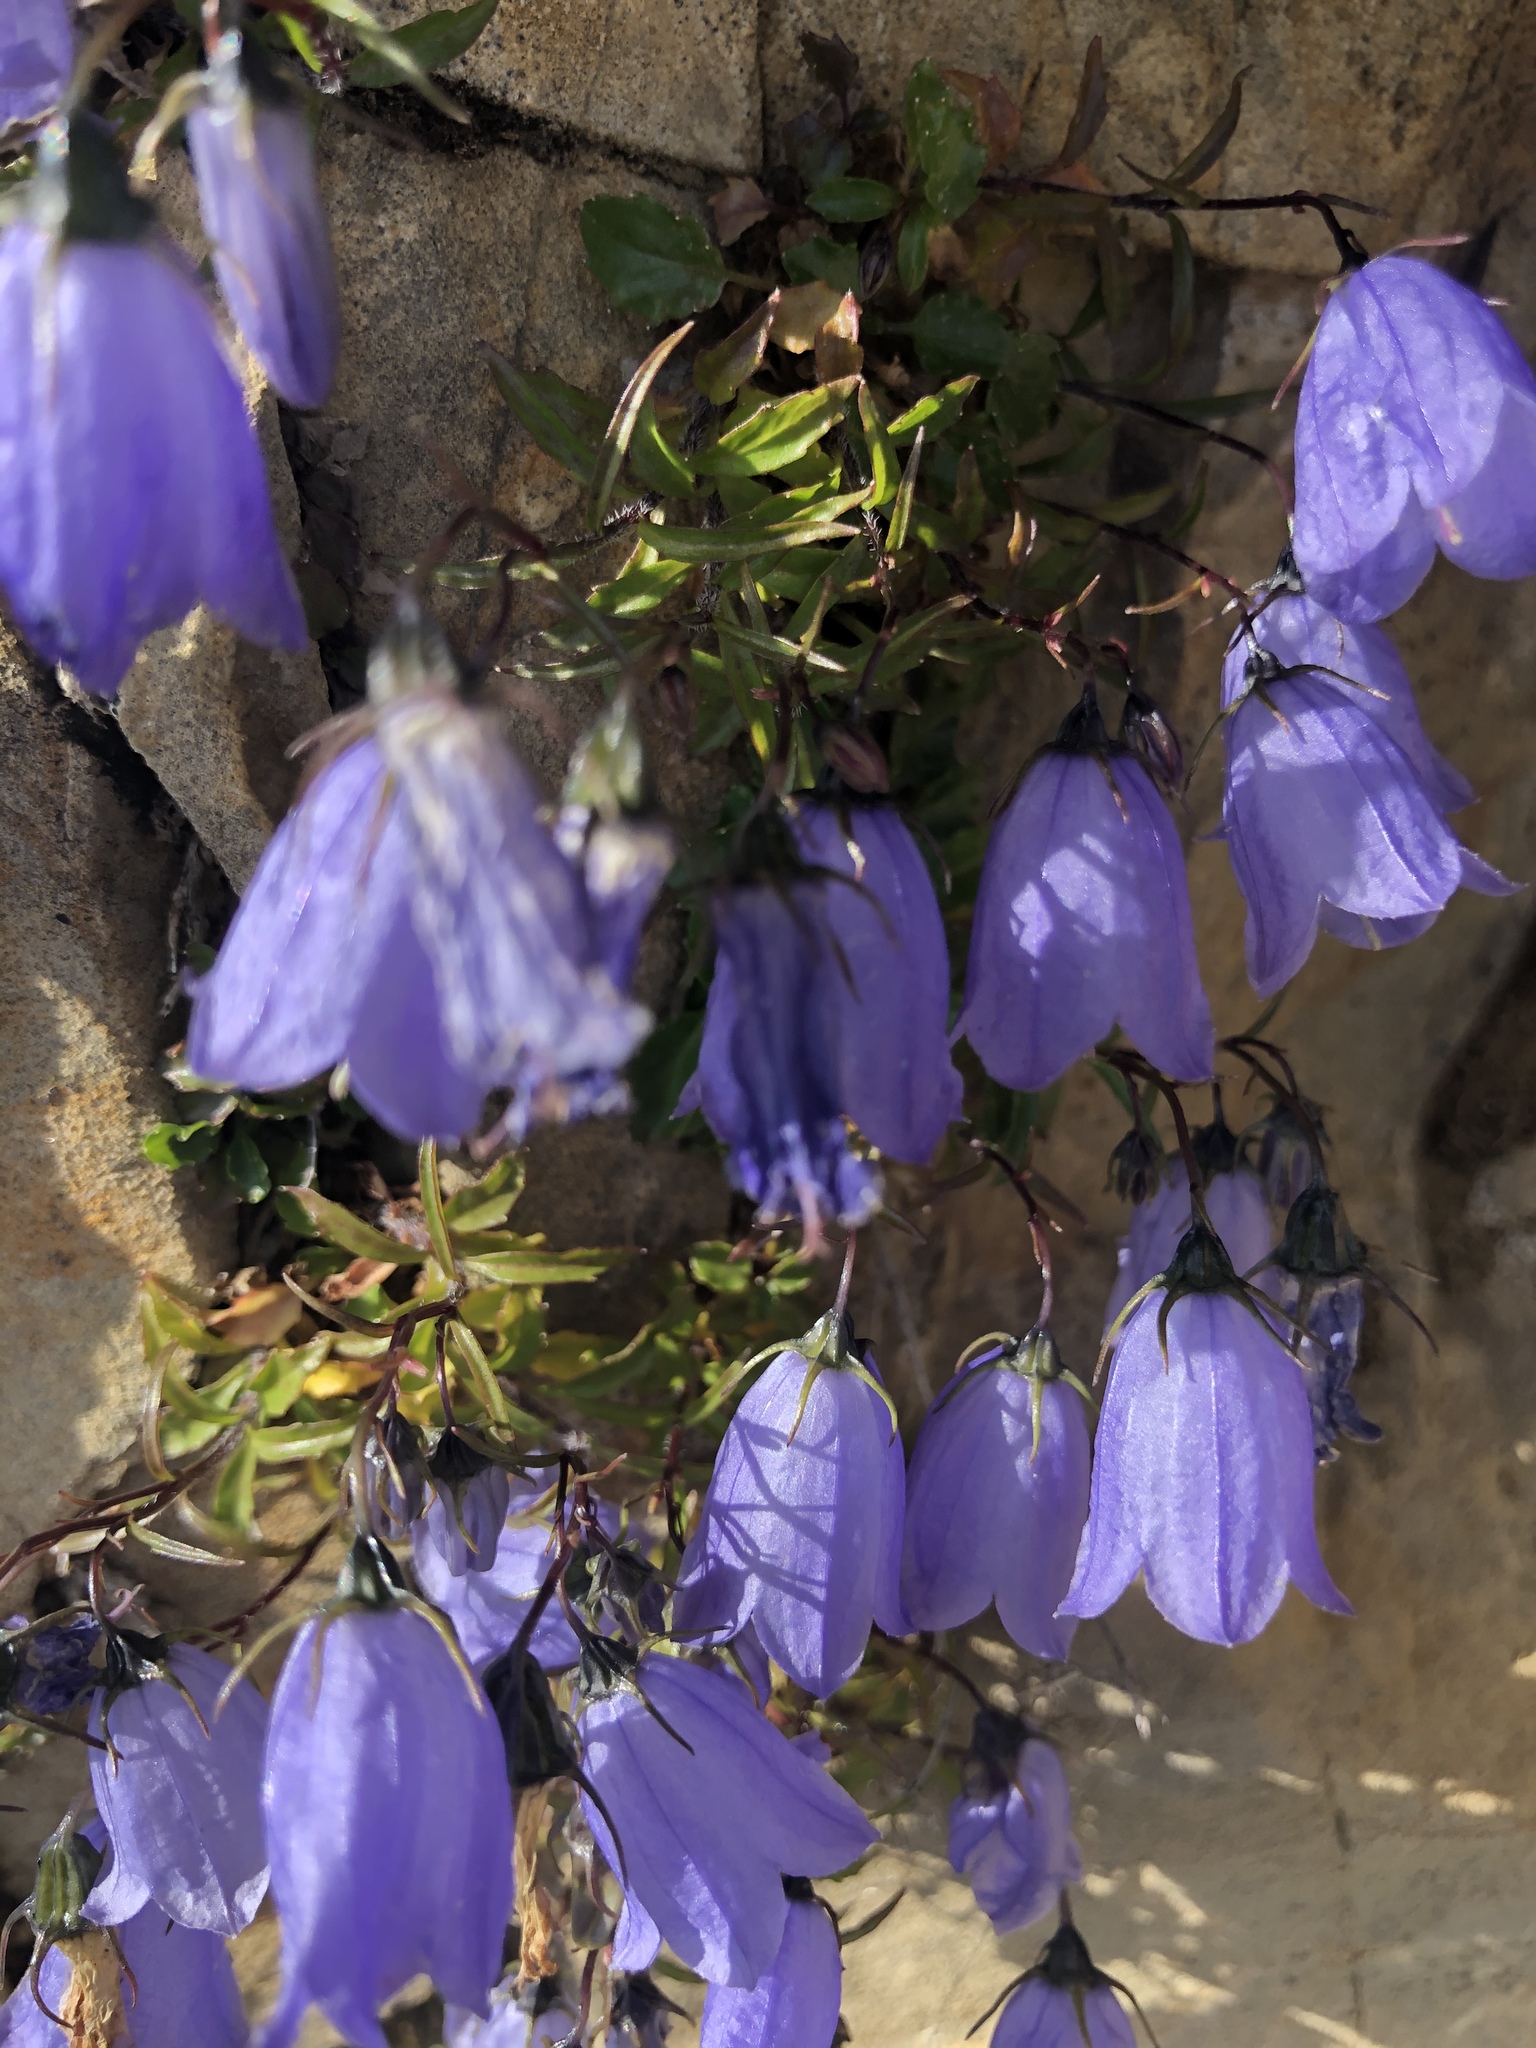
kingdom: Plantae
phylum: Tracheophyta
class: Magnoliopsida
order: Asterales
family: Campanulaceae
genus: Campanula
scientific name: Campanula cochleariifolia
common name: Fairies'-thimbles
